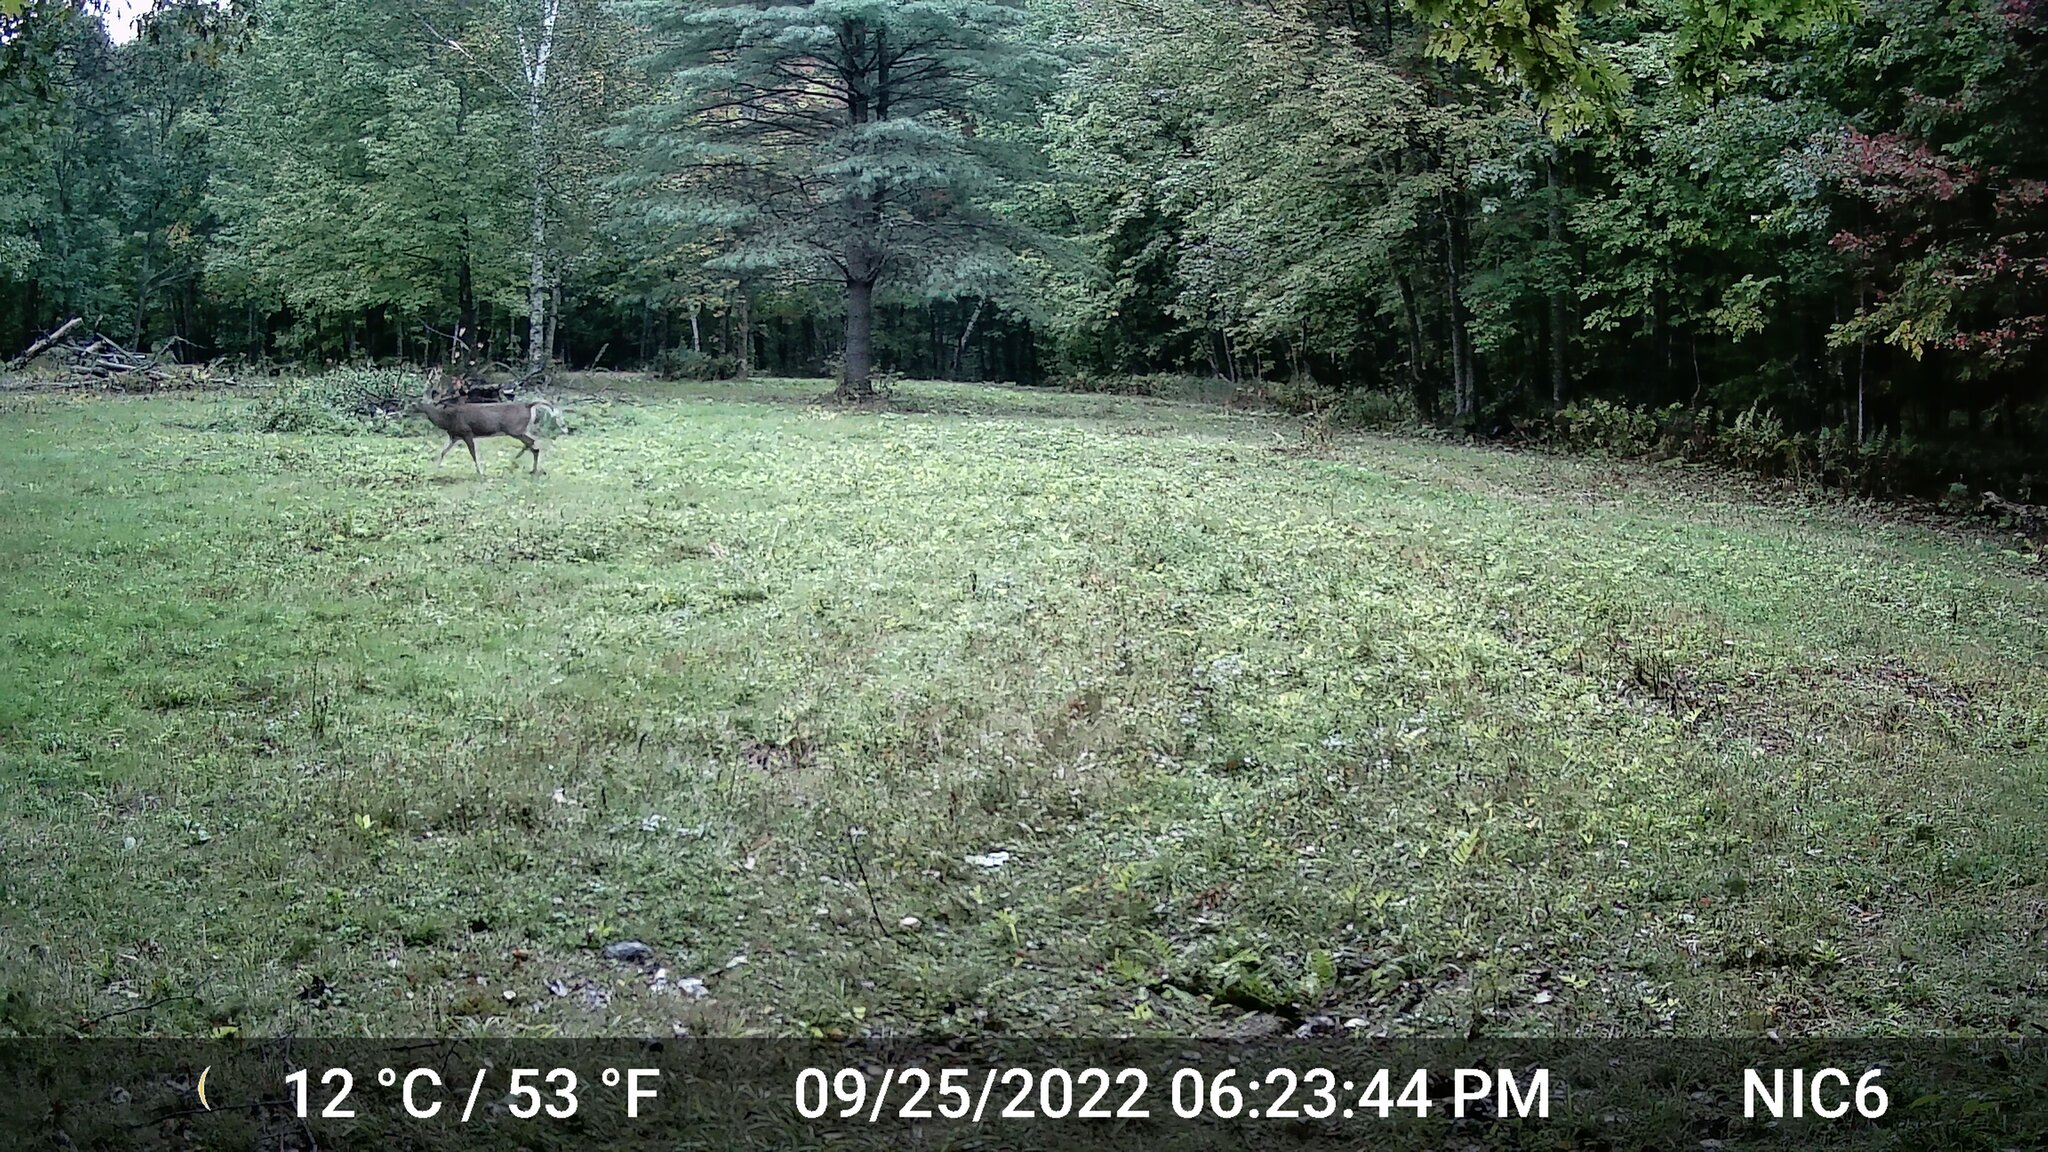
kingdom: Animalia
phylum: Chordata
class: Mammalia
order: Artiodactyla
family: Cervidae
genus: Odocoileus
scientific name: Odocoileus virginianus
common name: White-tailed deer
